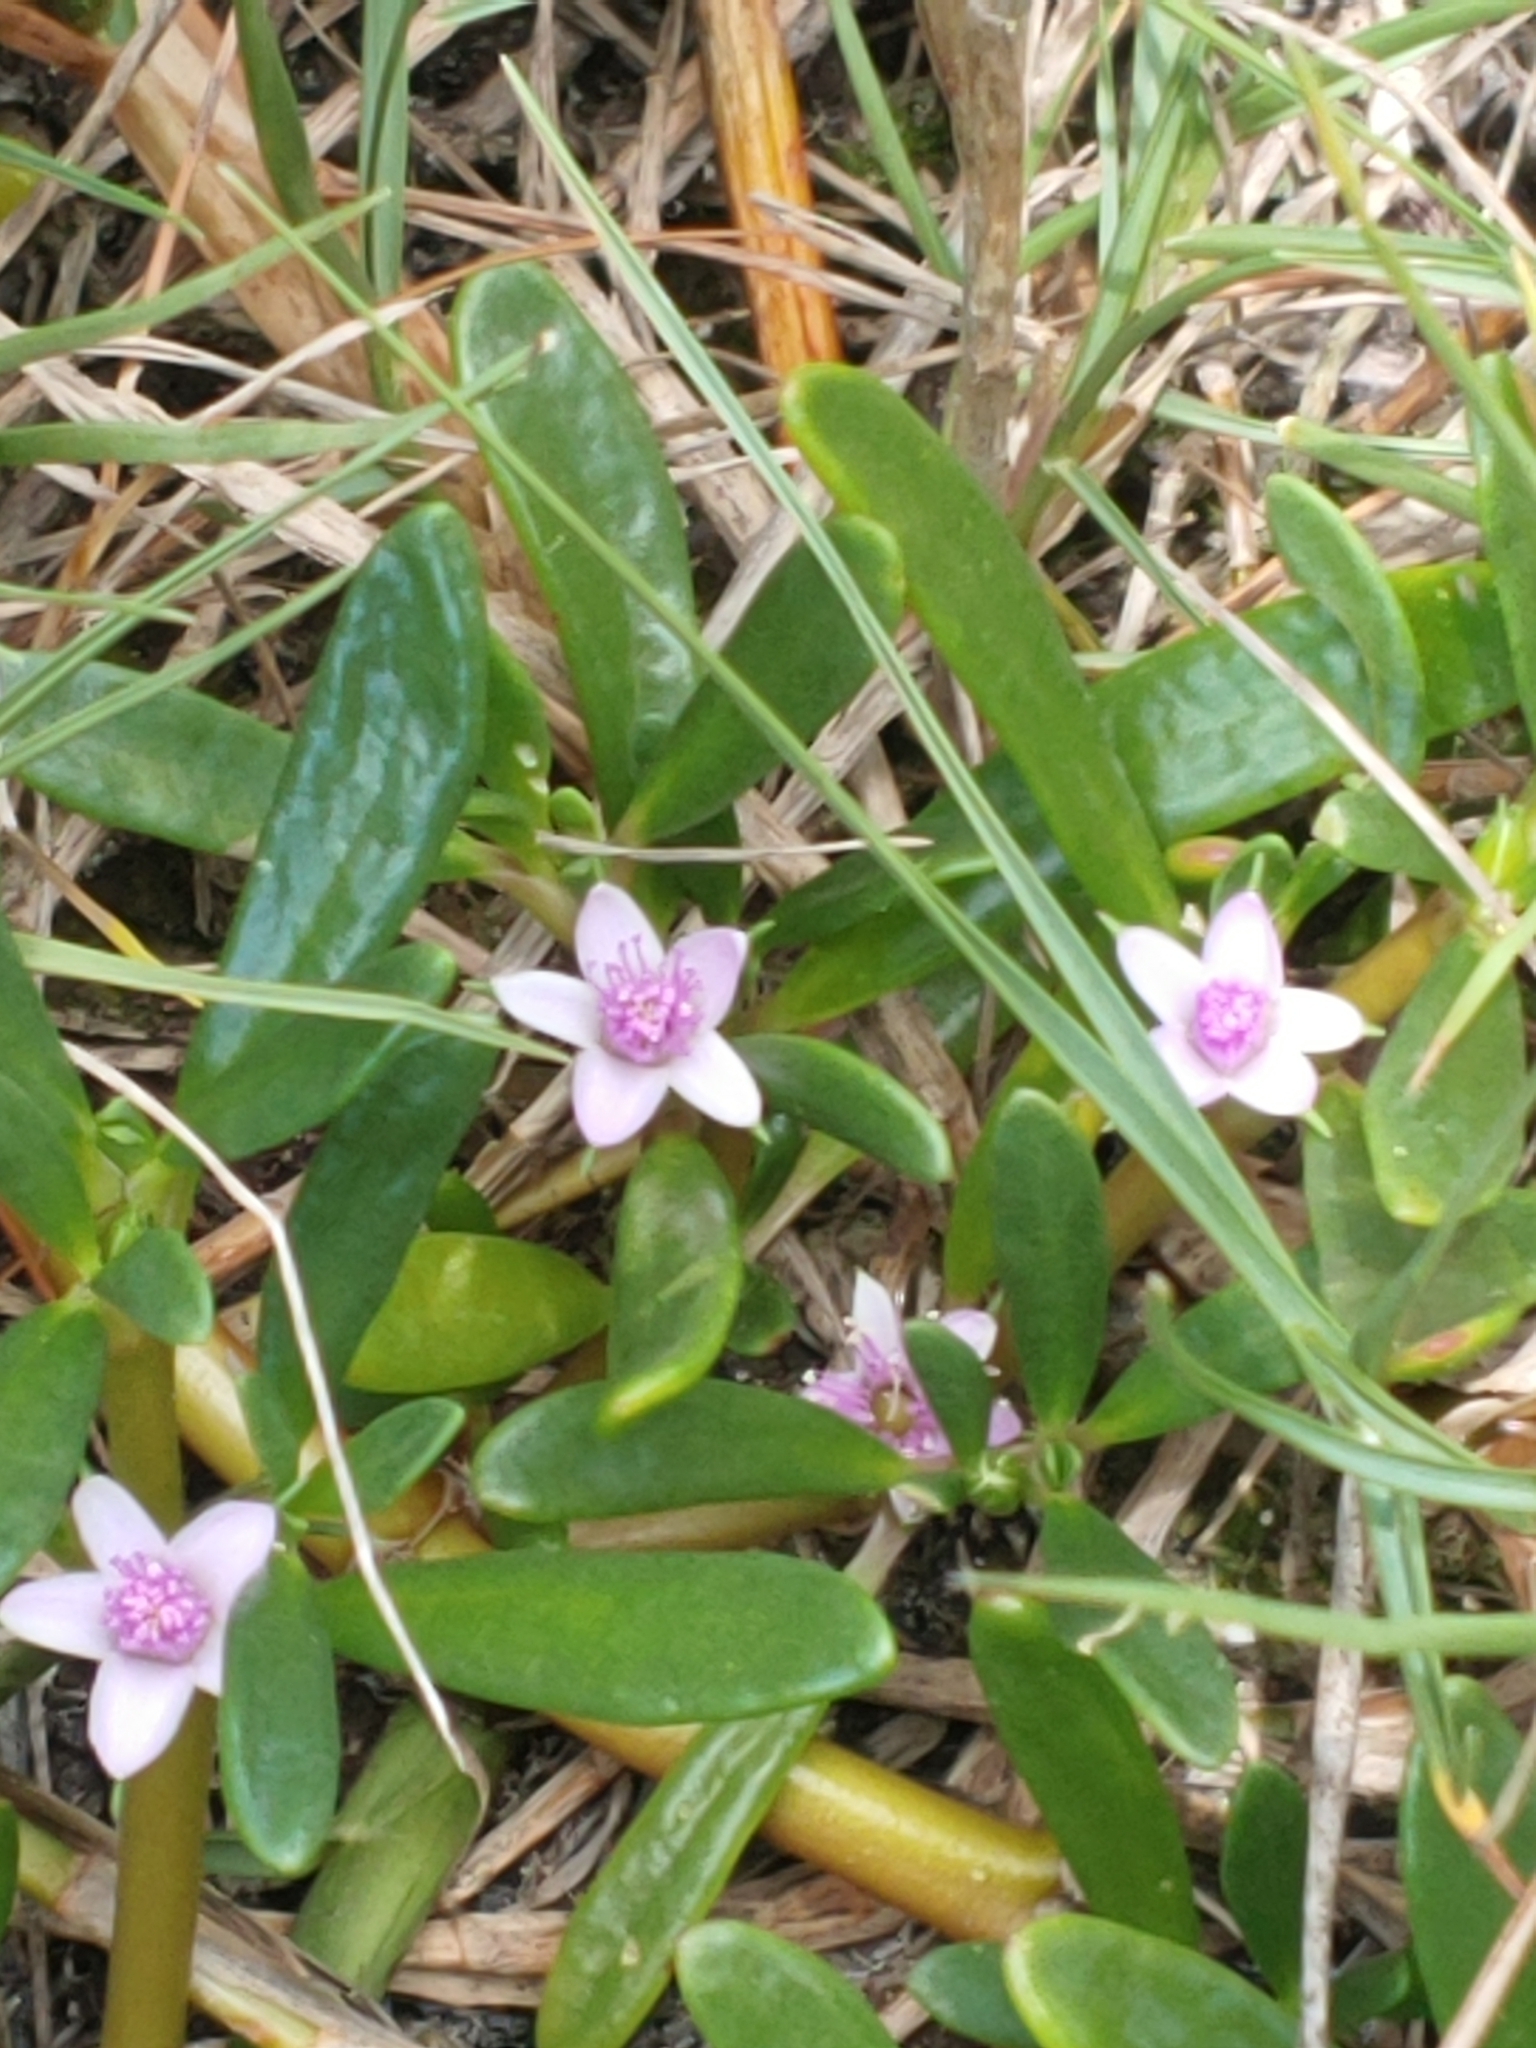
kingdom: Plantae
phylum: Tracheophyta
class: Magnoliopsida
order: Caryophyllales
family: Aizoaceae
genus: Sesuvium
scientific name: Sesuvium portulacastrum
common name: Sea-purslane
